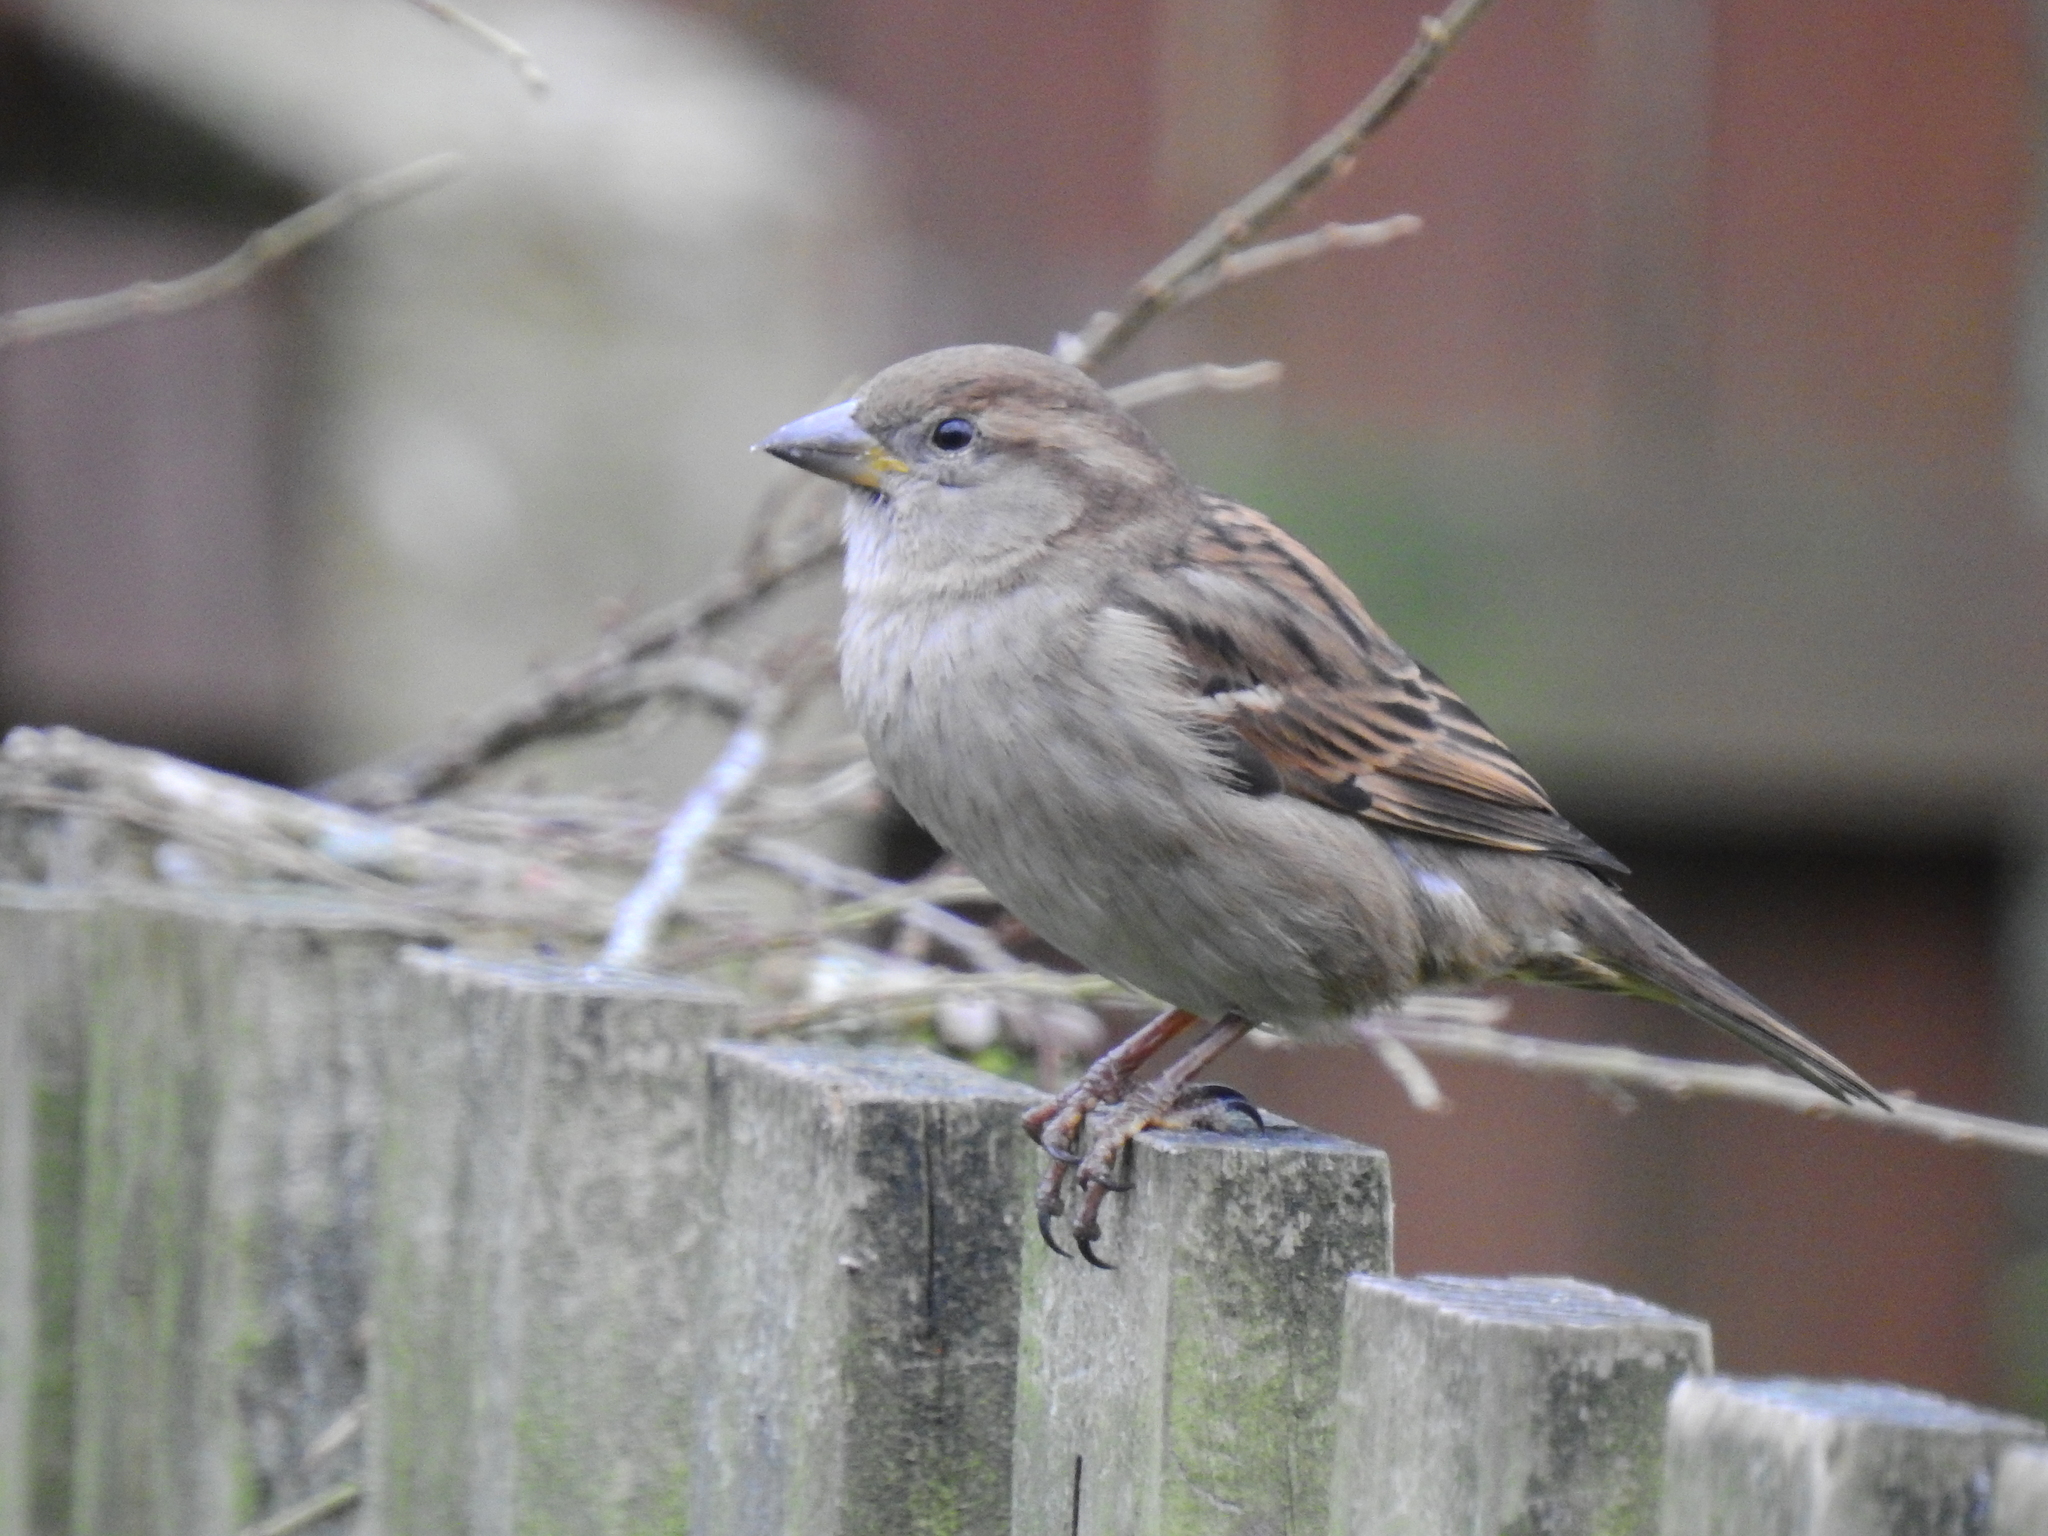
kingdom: Animalia
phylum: Chordata
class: Aves
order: Passeriformes
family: Passeridae
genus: Passer
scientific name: Passer domesticus
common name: House sparrow
